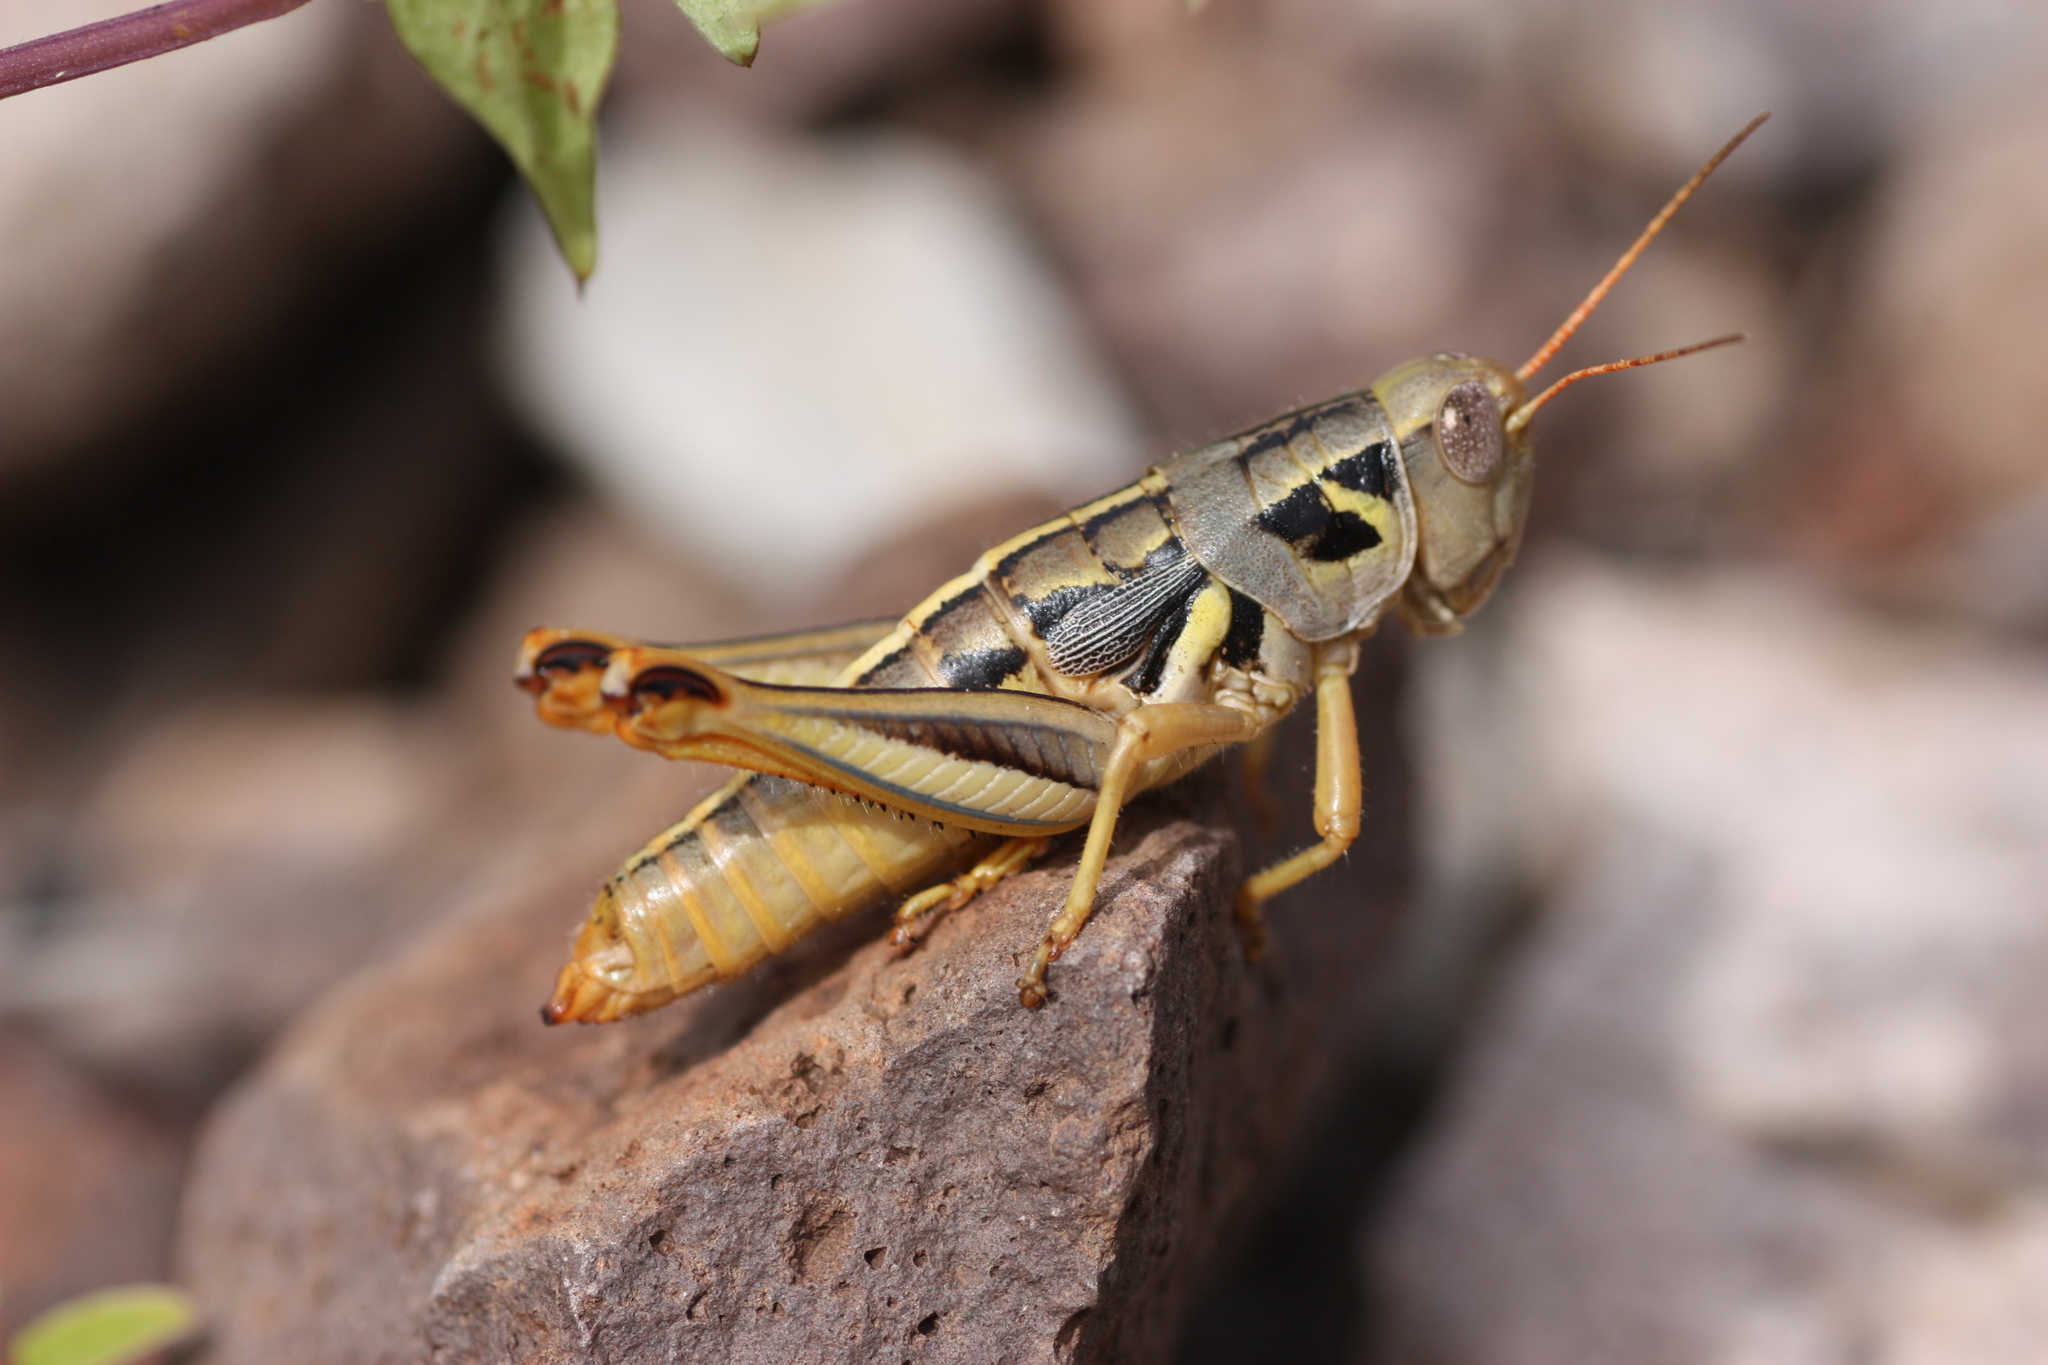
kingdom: Animalia
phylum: Arthropoda
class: Insecta
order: Orthoptera
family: Acrididae
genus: Barytettix
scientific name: Barytettix humphreysii
